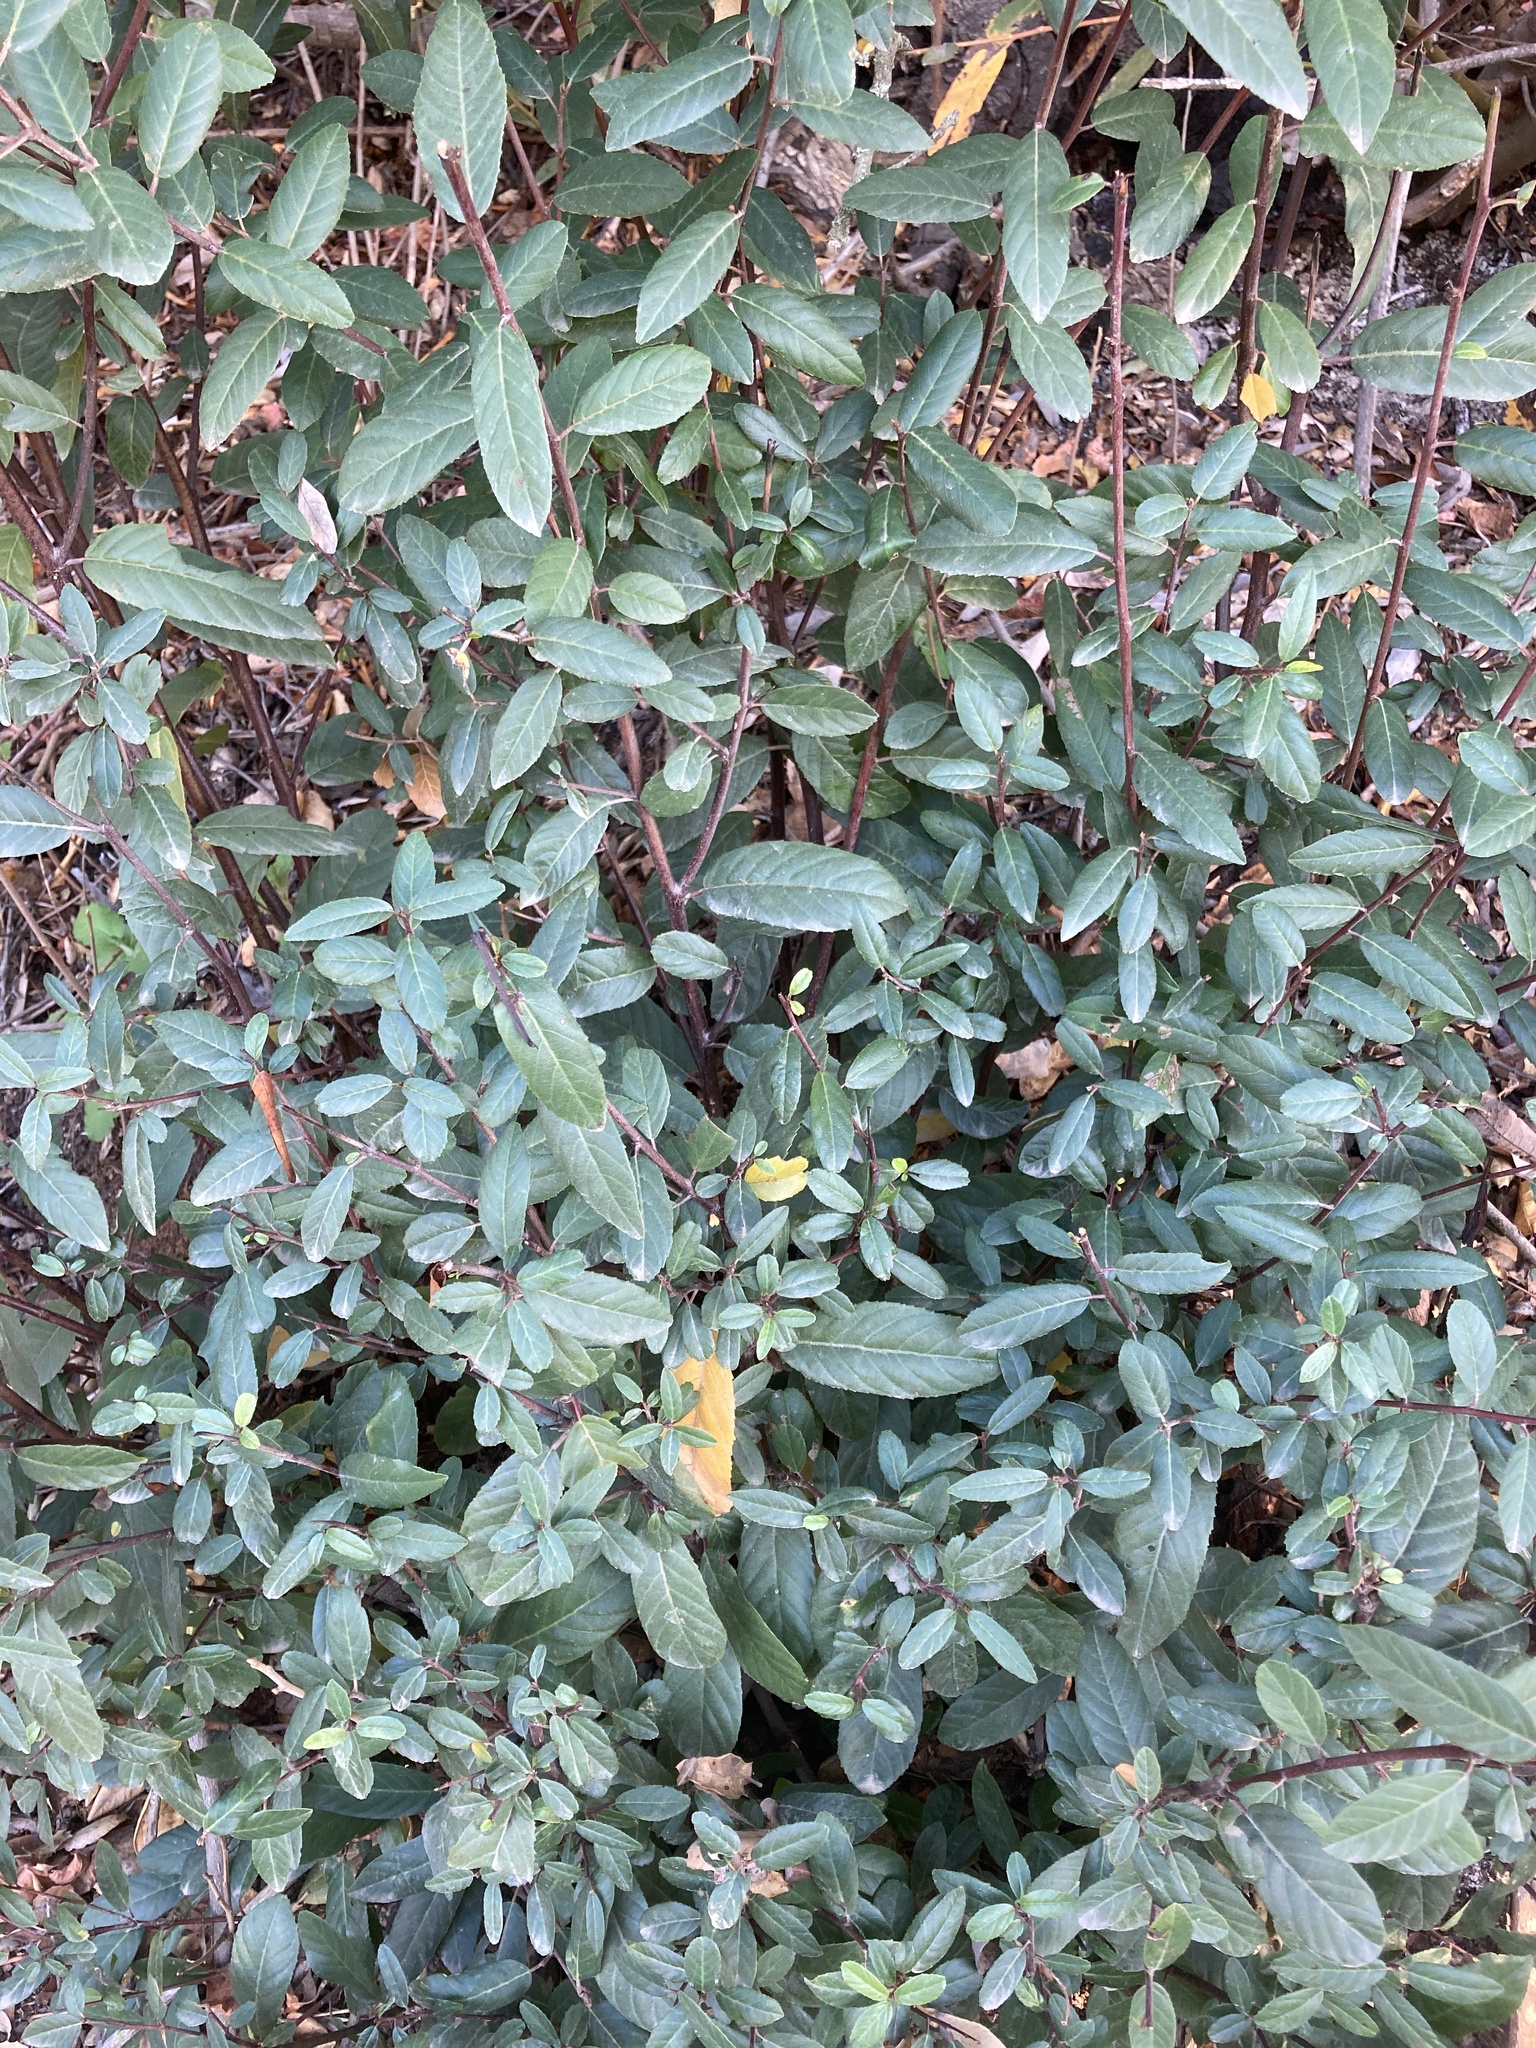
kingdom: Plantae
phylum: Tracheophyta
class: Magnoliopsida
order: Rosales
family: Rhamnaceae
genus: Frangula
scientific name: Frangula californica
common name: California buckthorn
